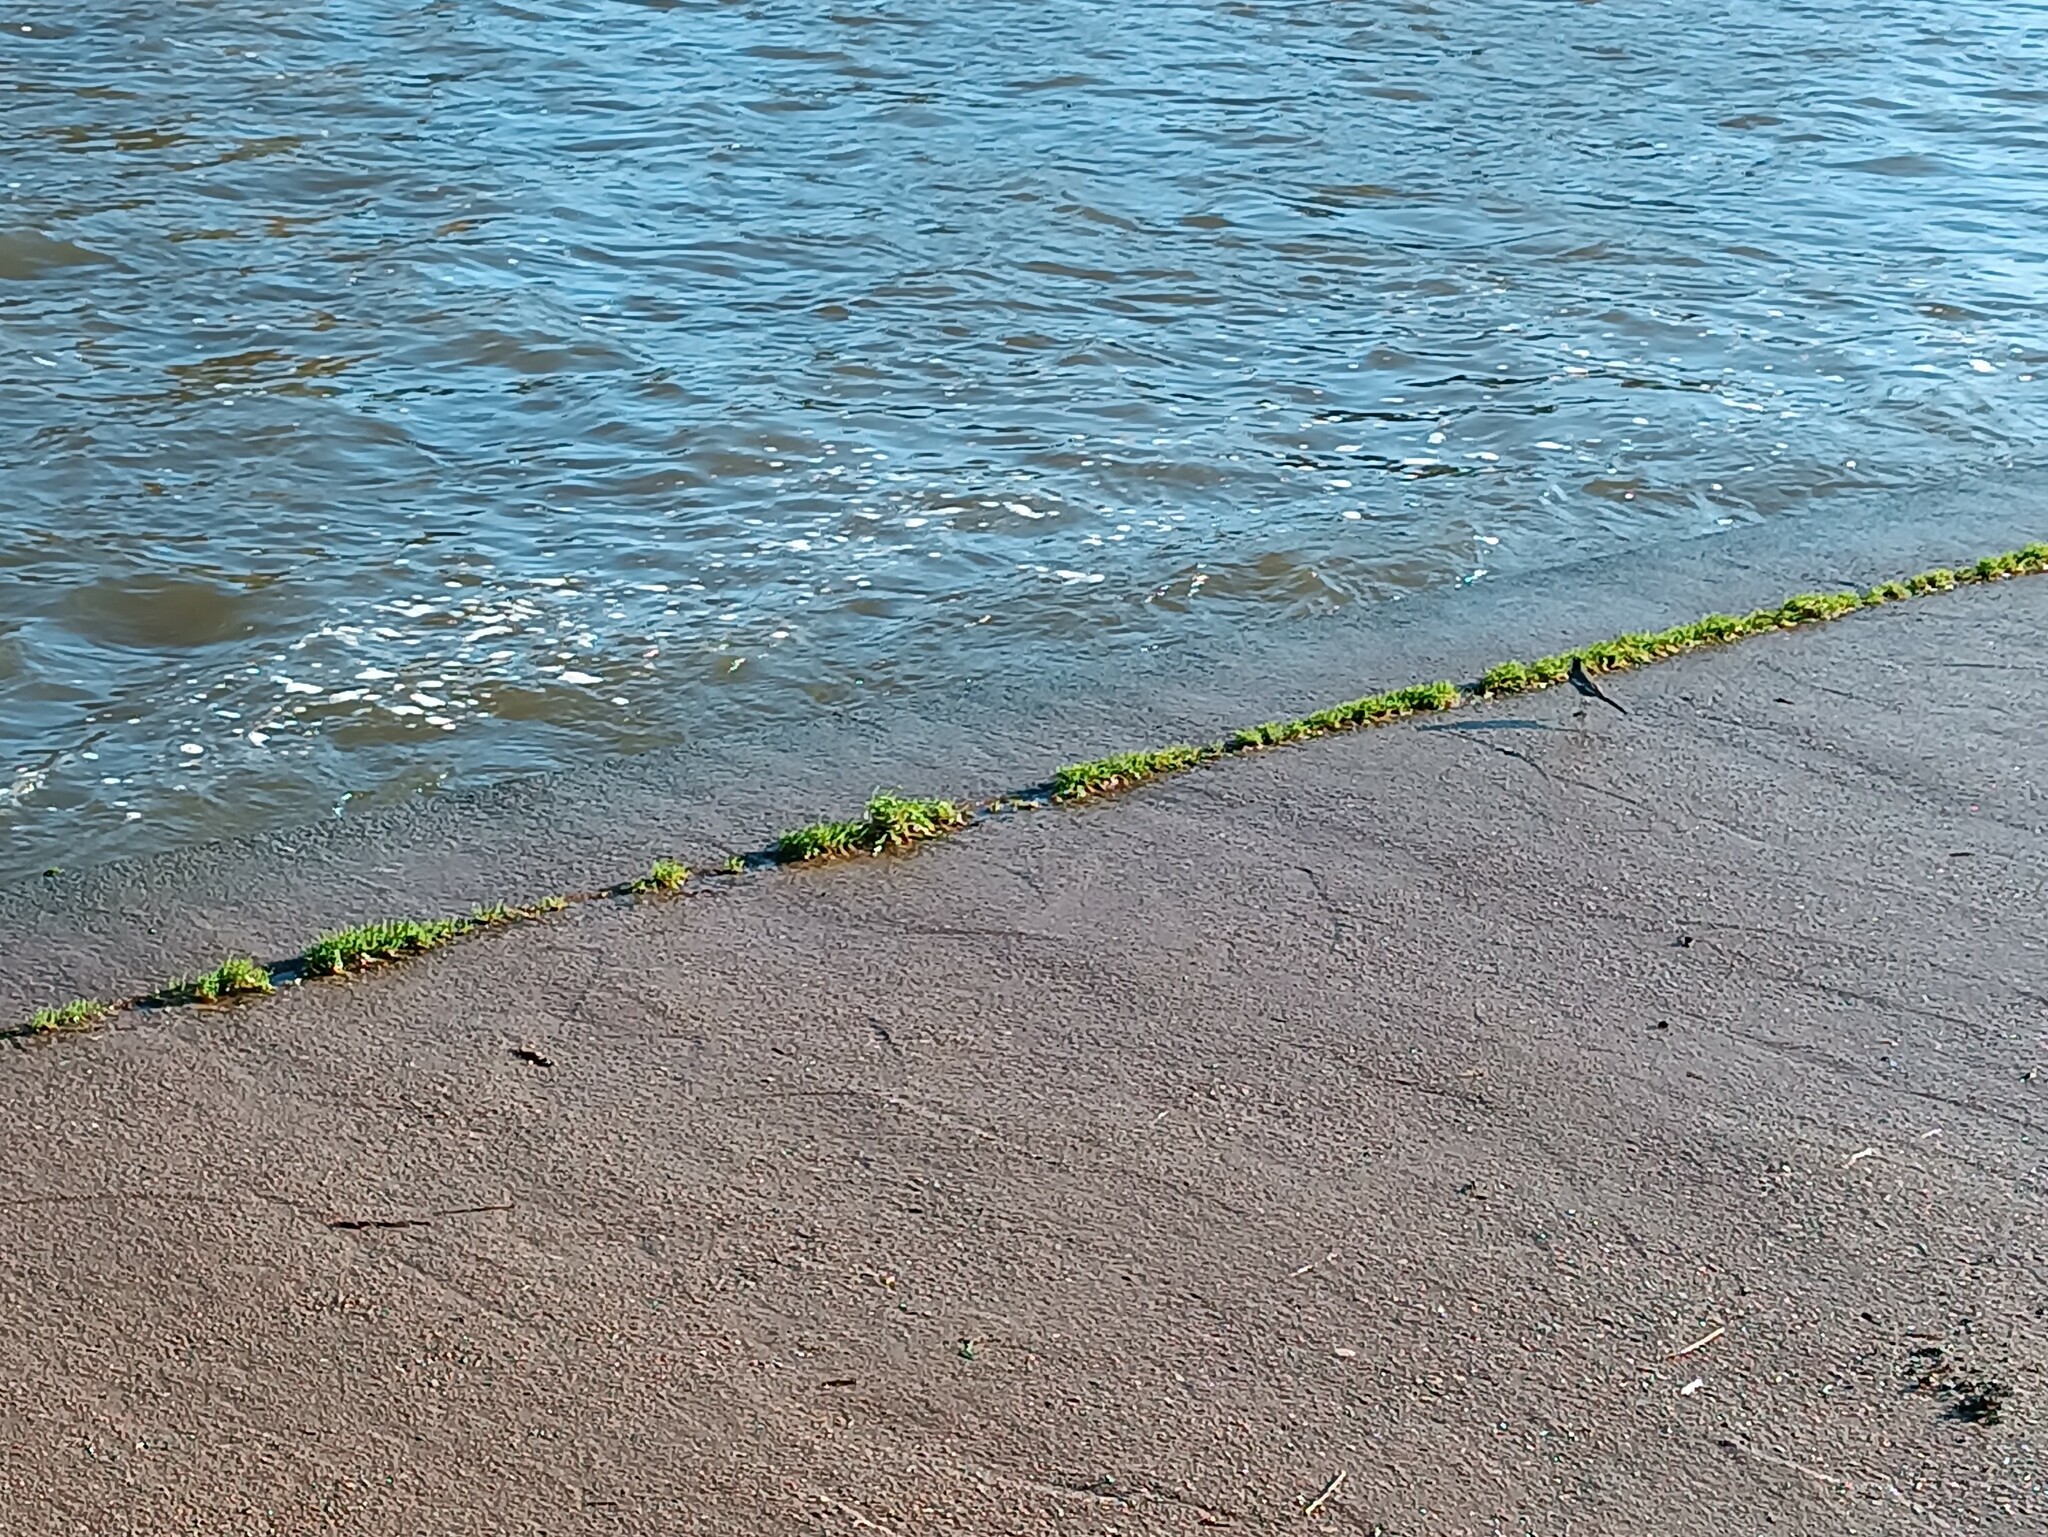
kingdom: Animalia
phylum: Chordata
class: Aves
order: Passeriformes
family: Motacillidae
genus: Motacilla
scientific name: Motacilla alba
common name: White wagtail
